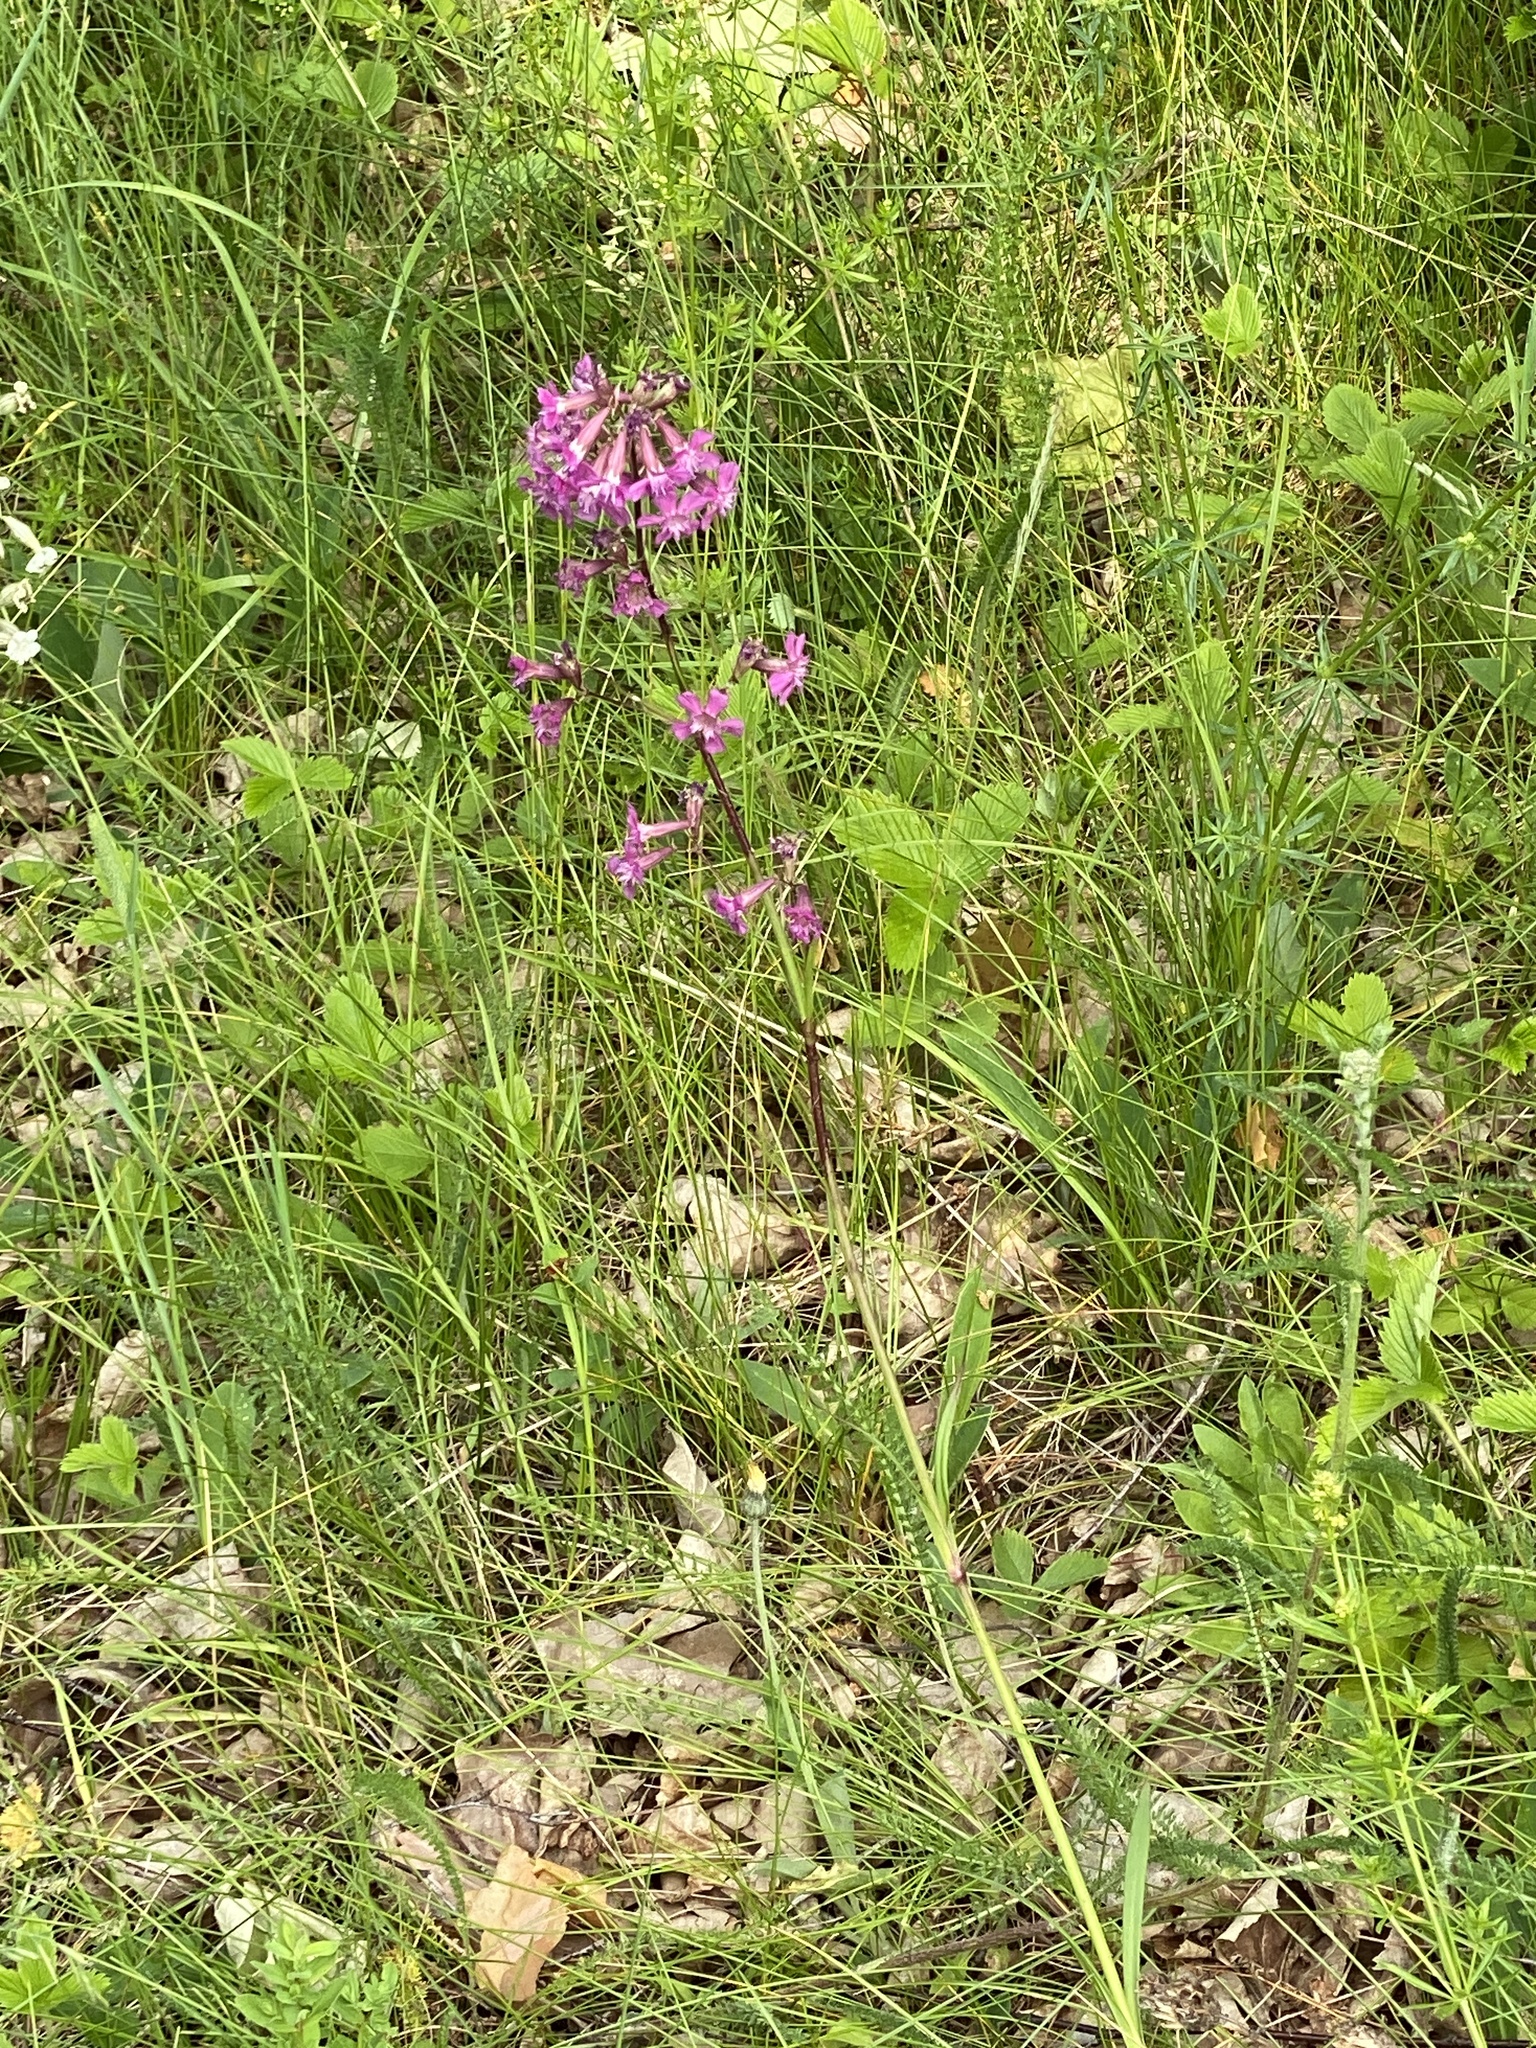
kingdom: Plantae
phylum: Tracheophyta
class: Magnoliopsida
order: Caryophyllales
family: Caryophyllaceae
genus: Viscaria
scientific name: Viscaria vulgaris
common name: Clammy campion
